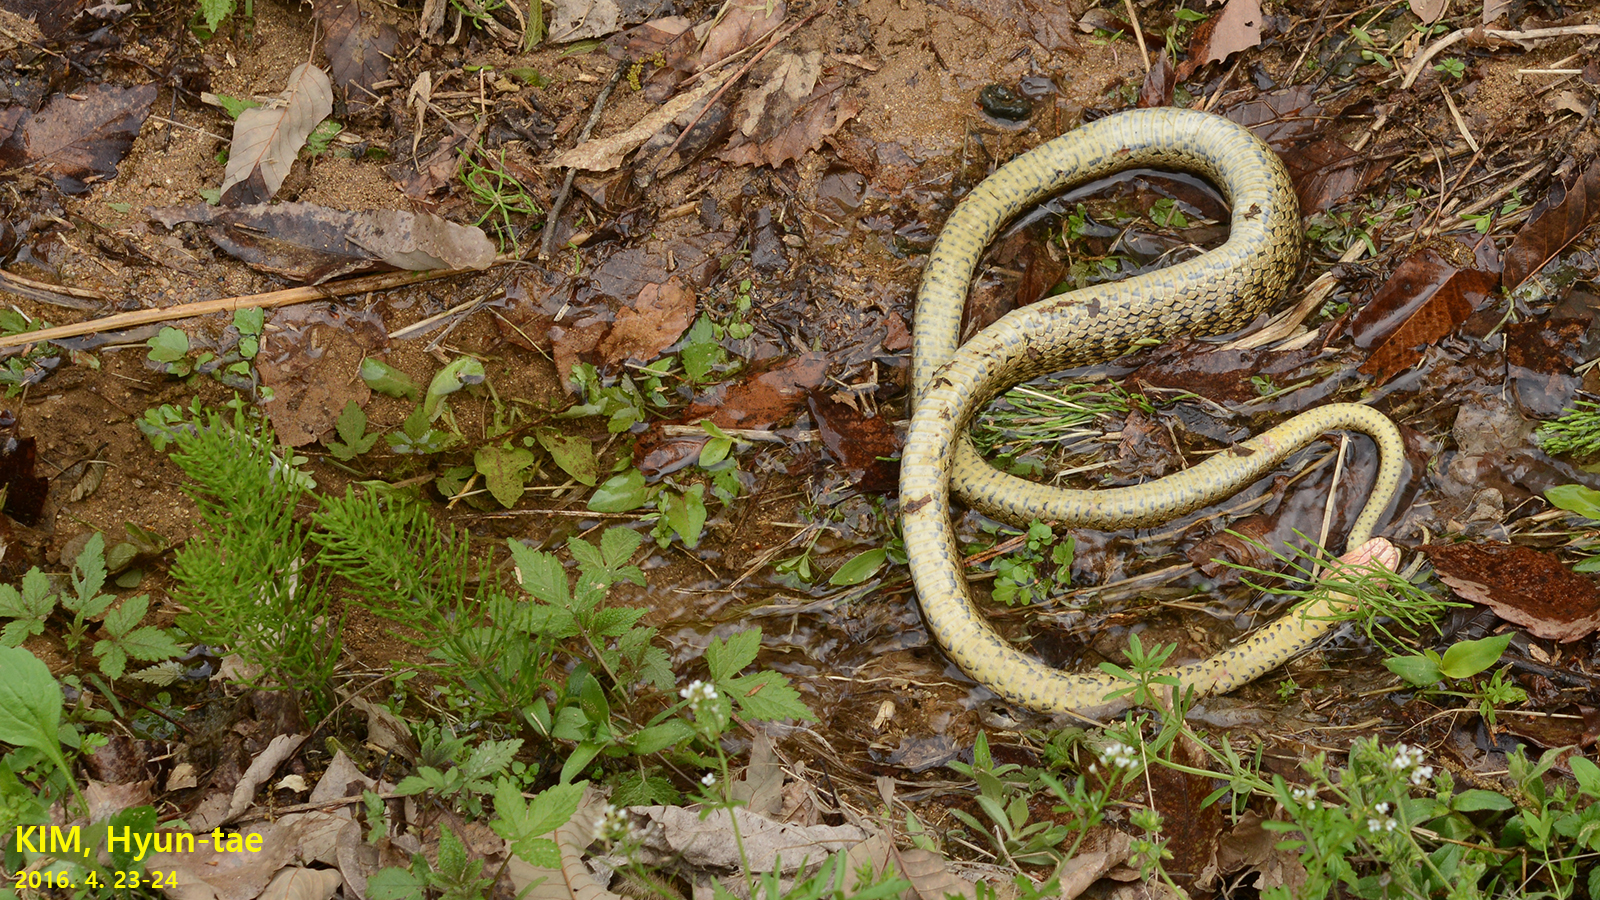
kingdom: Animalia
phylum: Chordata
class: Squamata
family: Colubridae
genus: Elaphe
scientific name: Elaphe dione
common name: Dione ratsnake
